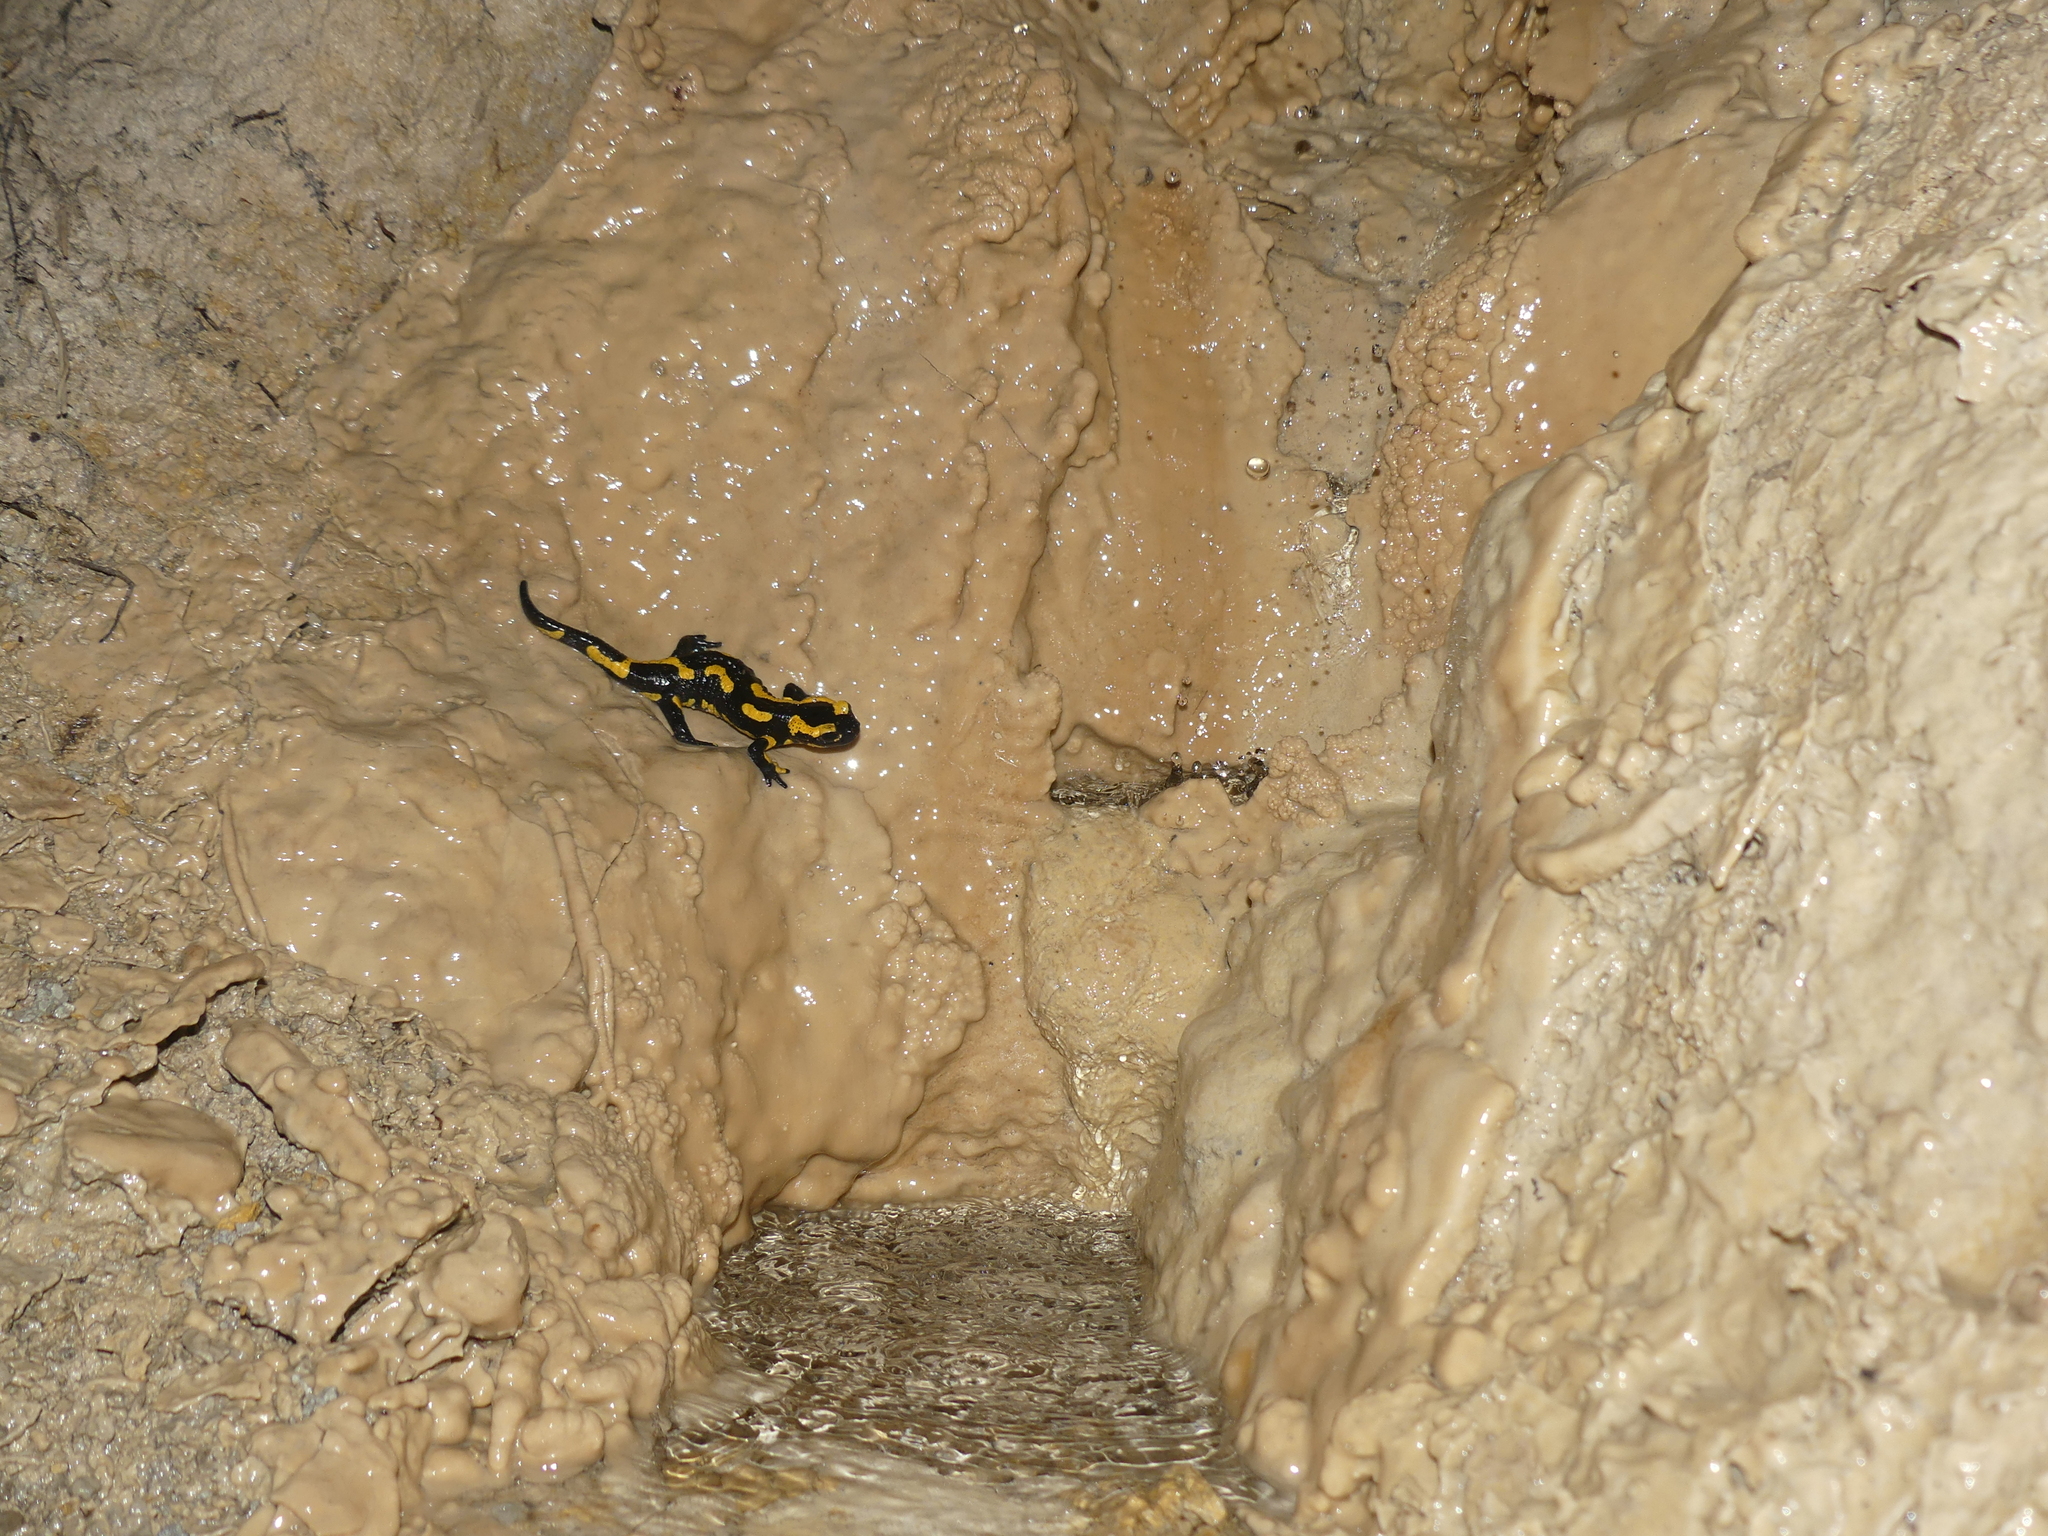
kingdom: Animalia
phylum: Chordata
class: Amphibia
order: Caudata
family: Salamandridae
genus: Salamandra
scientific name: Salamandra salamandra
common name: Fire salamander
